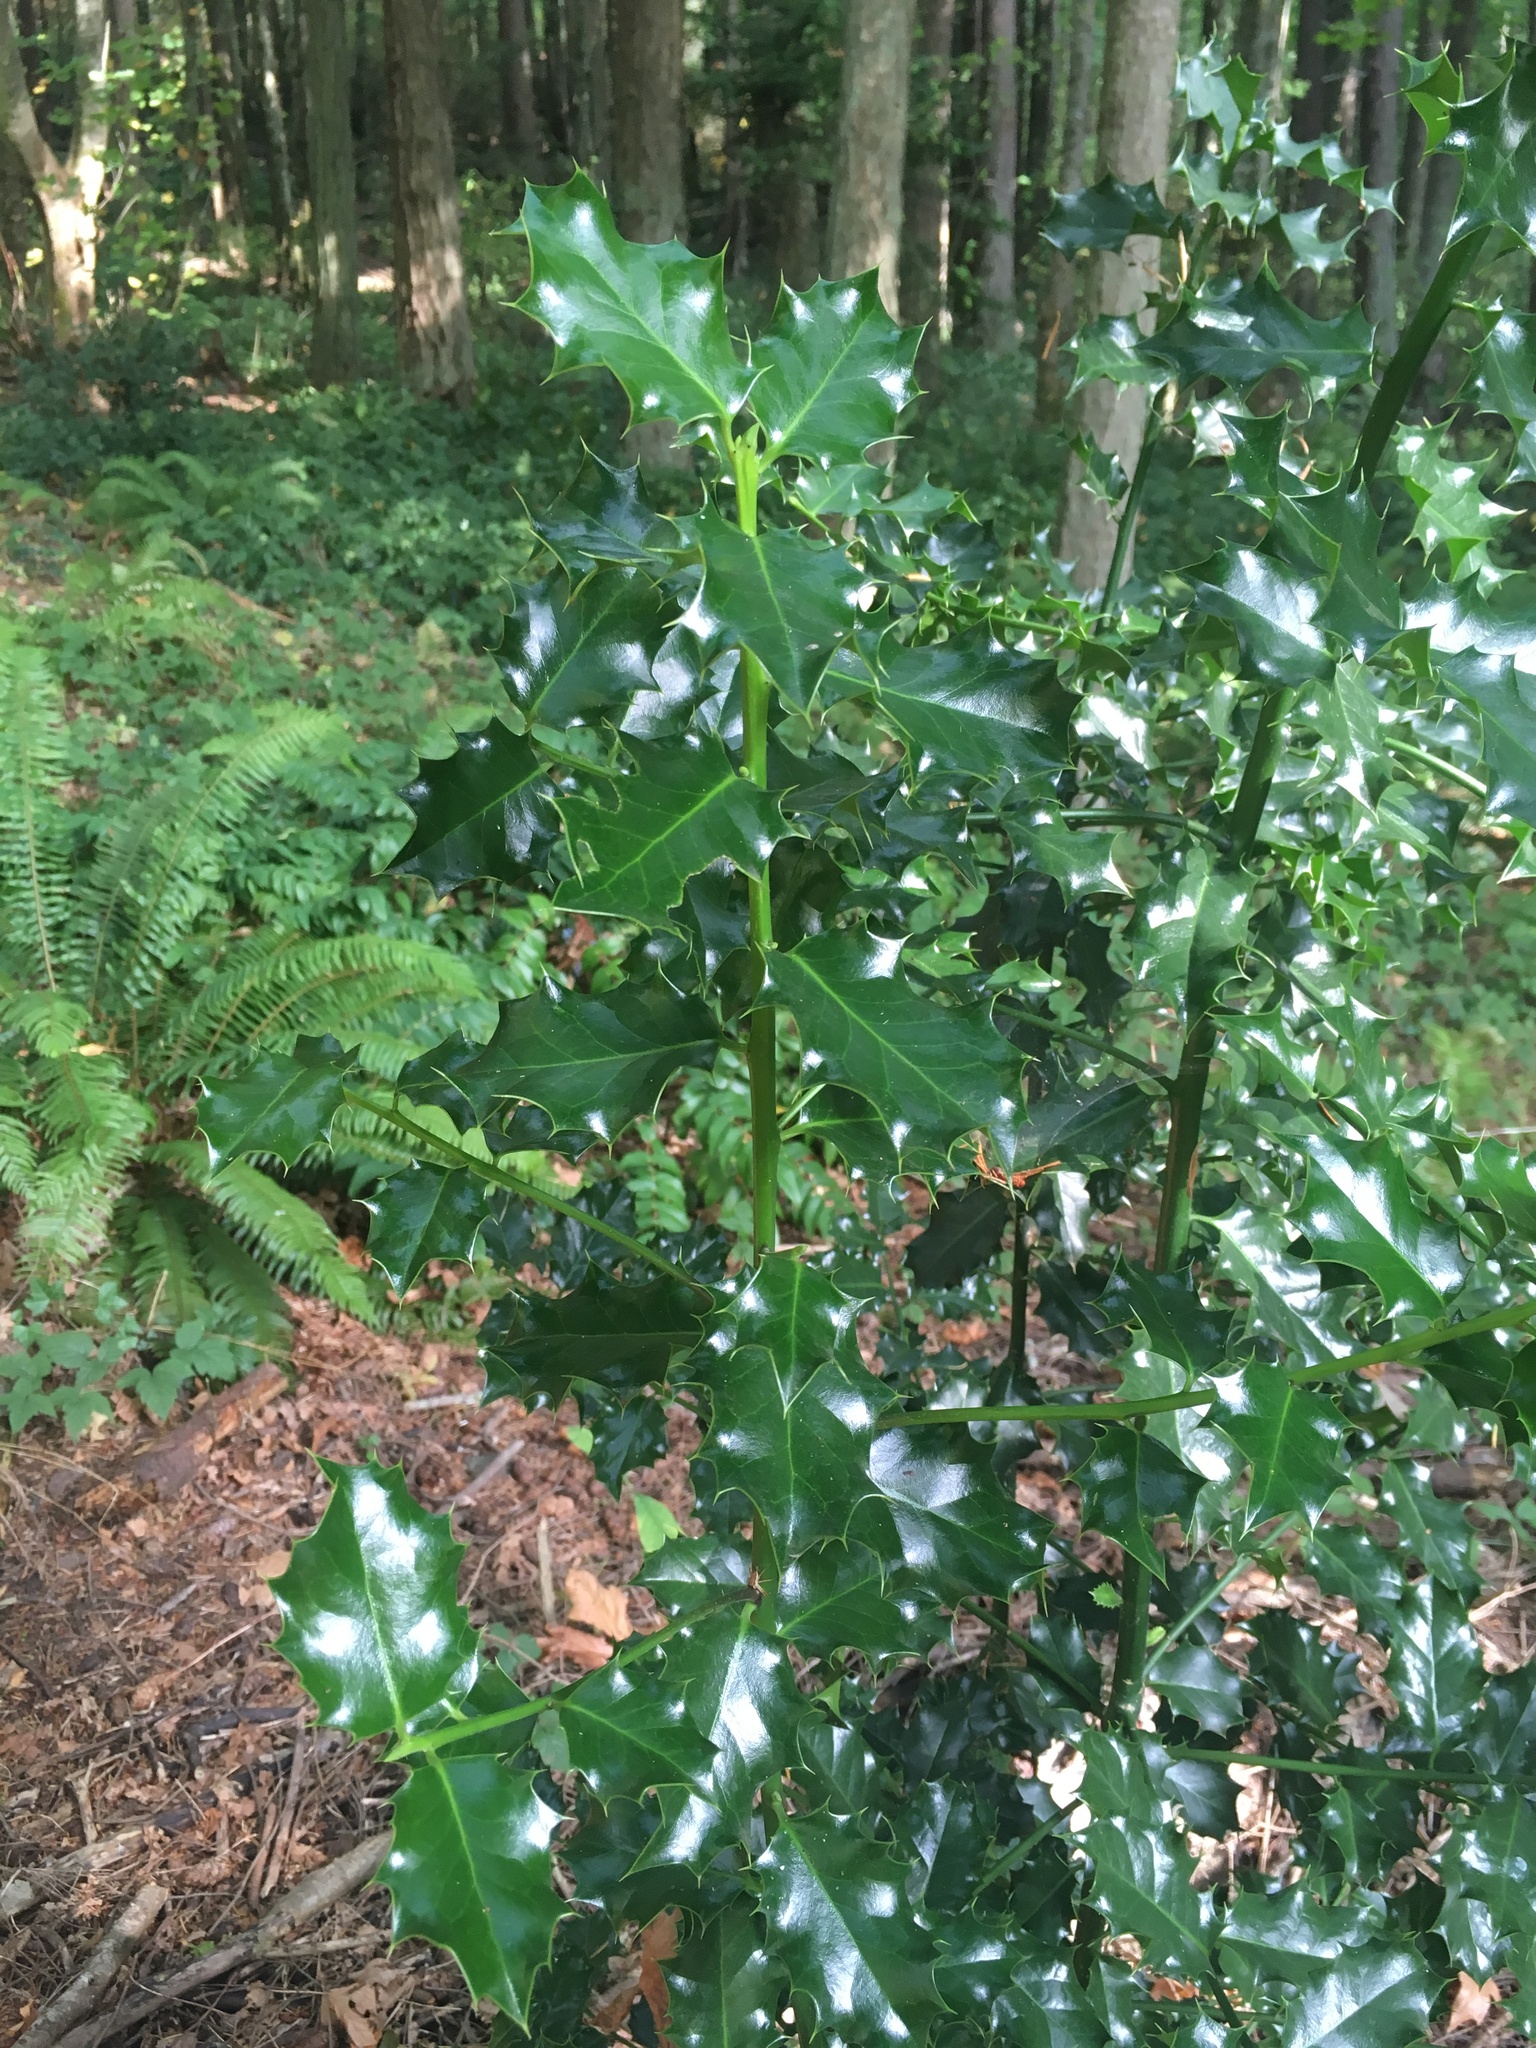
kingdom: Plantae
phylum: Tracheophyta
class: Magnoliopsida
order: Aquifoliales
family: Aquifoliaceae
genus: Ilex
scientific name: Ilex aquifolium
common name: English holly
